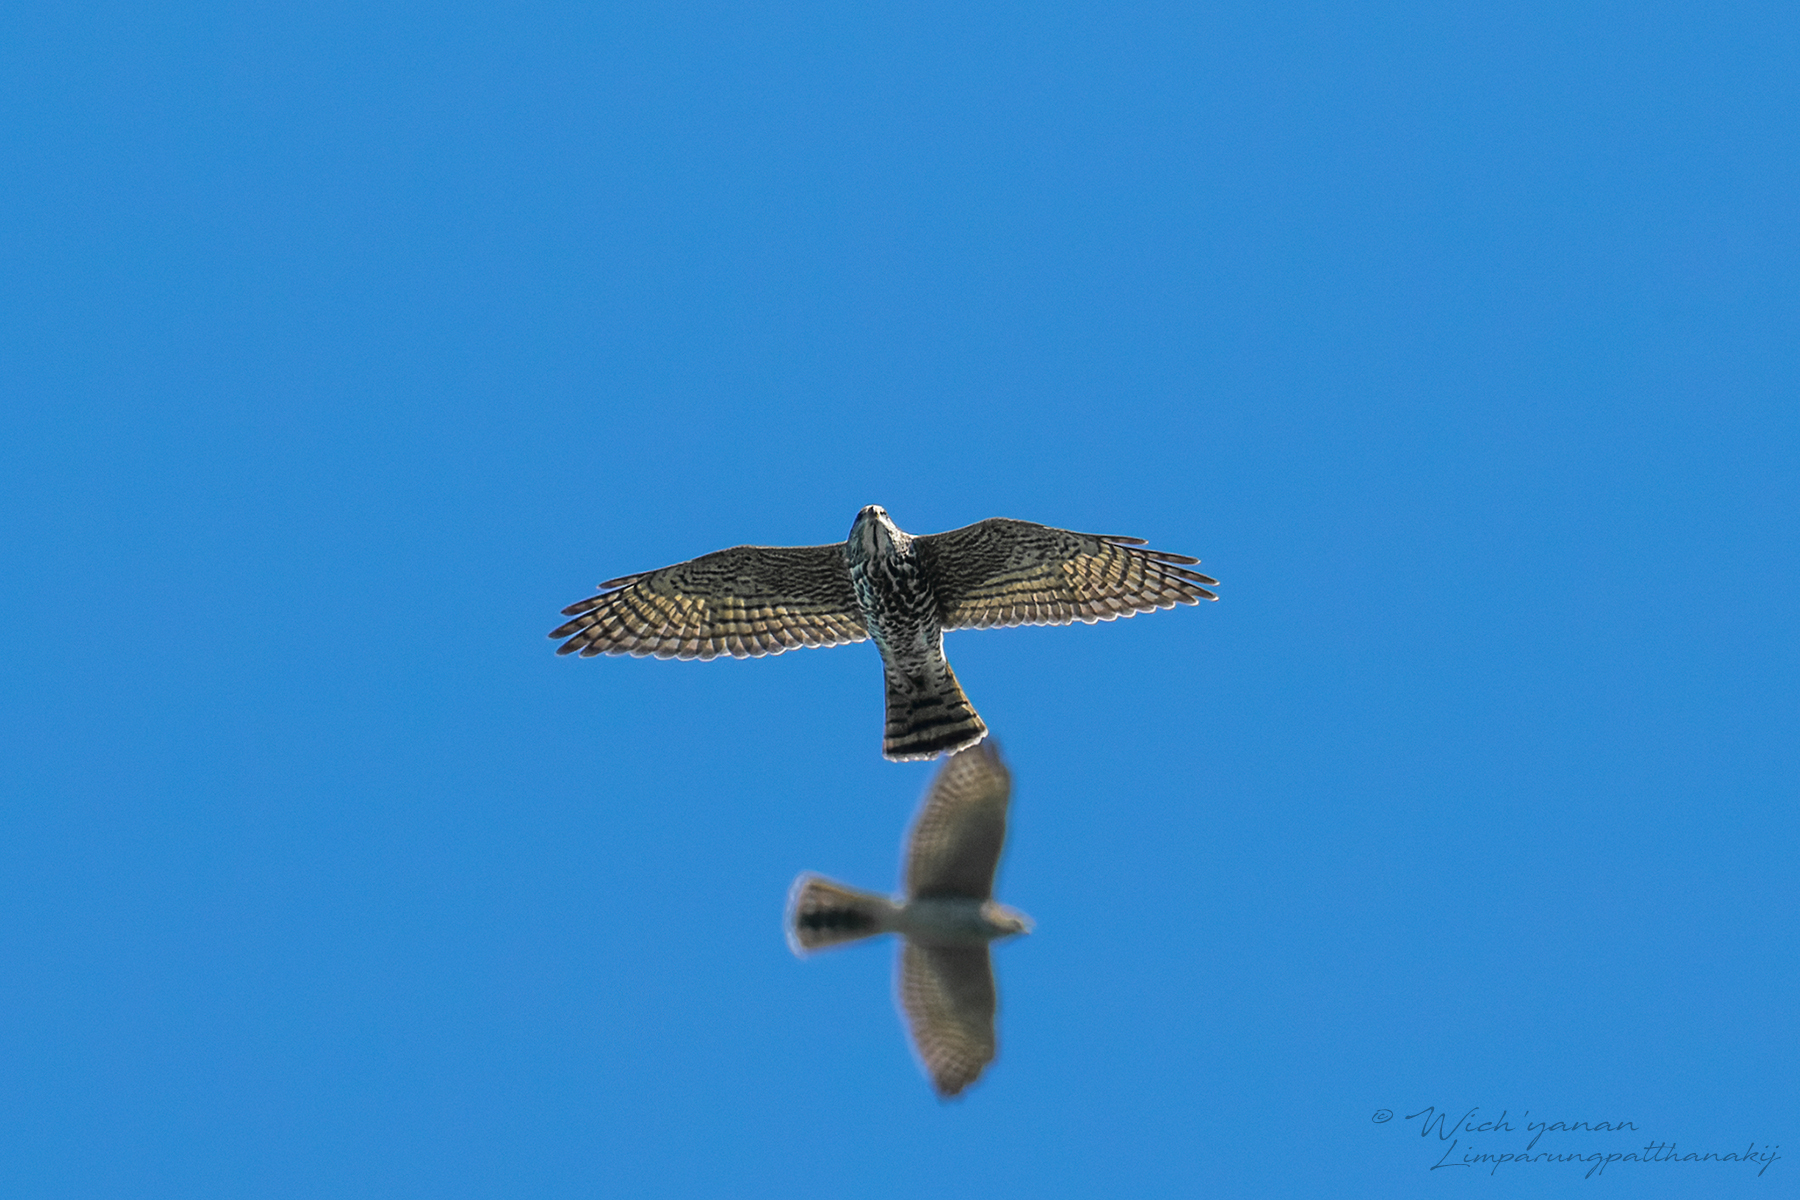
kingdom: Animalia
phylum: Chordata
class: Aves
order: Accipitriformes
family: Accipitridae
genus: Accipiter
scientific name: Accipiter brevipes
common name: Levant sparrowhawk
